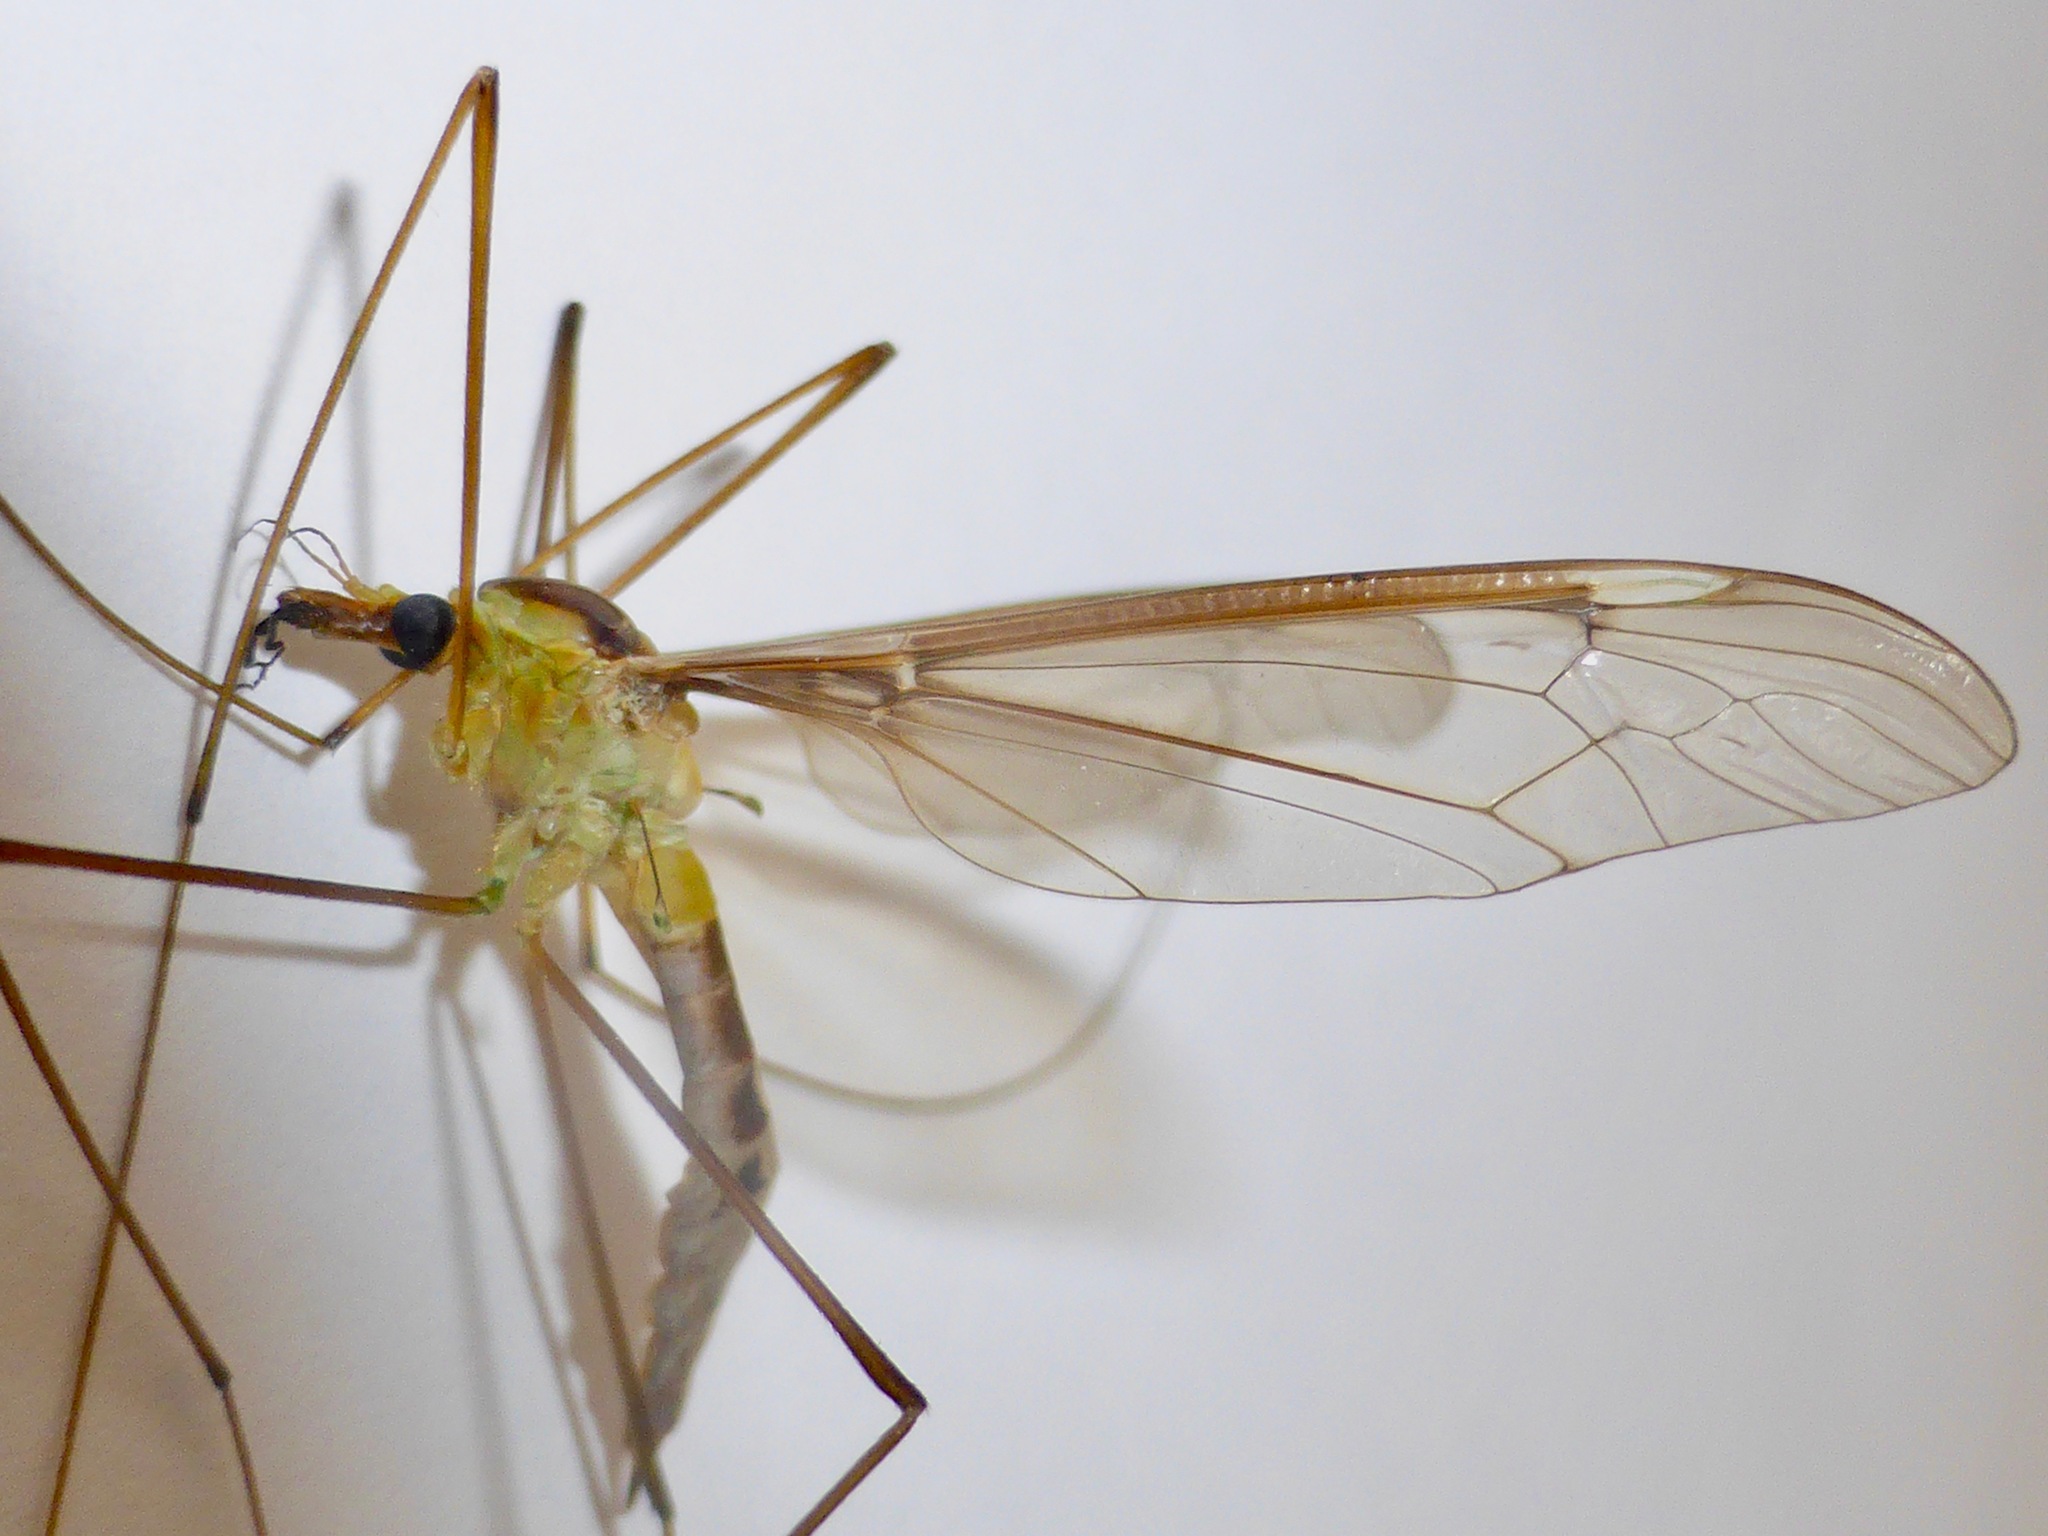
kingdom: Animalia
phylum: Arthropoda
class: Insecta
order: Diptera
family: Tipulidae
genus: Leptotarsus
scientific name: Leptotarsus albistigma
